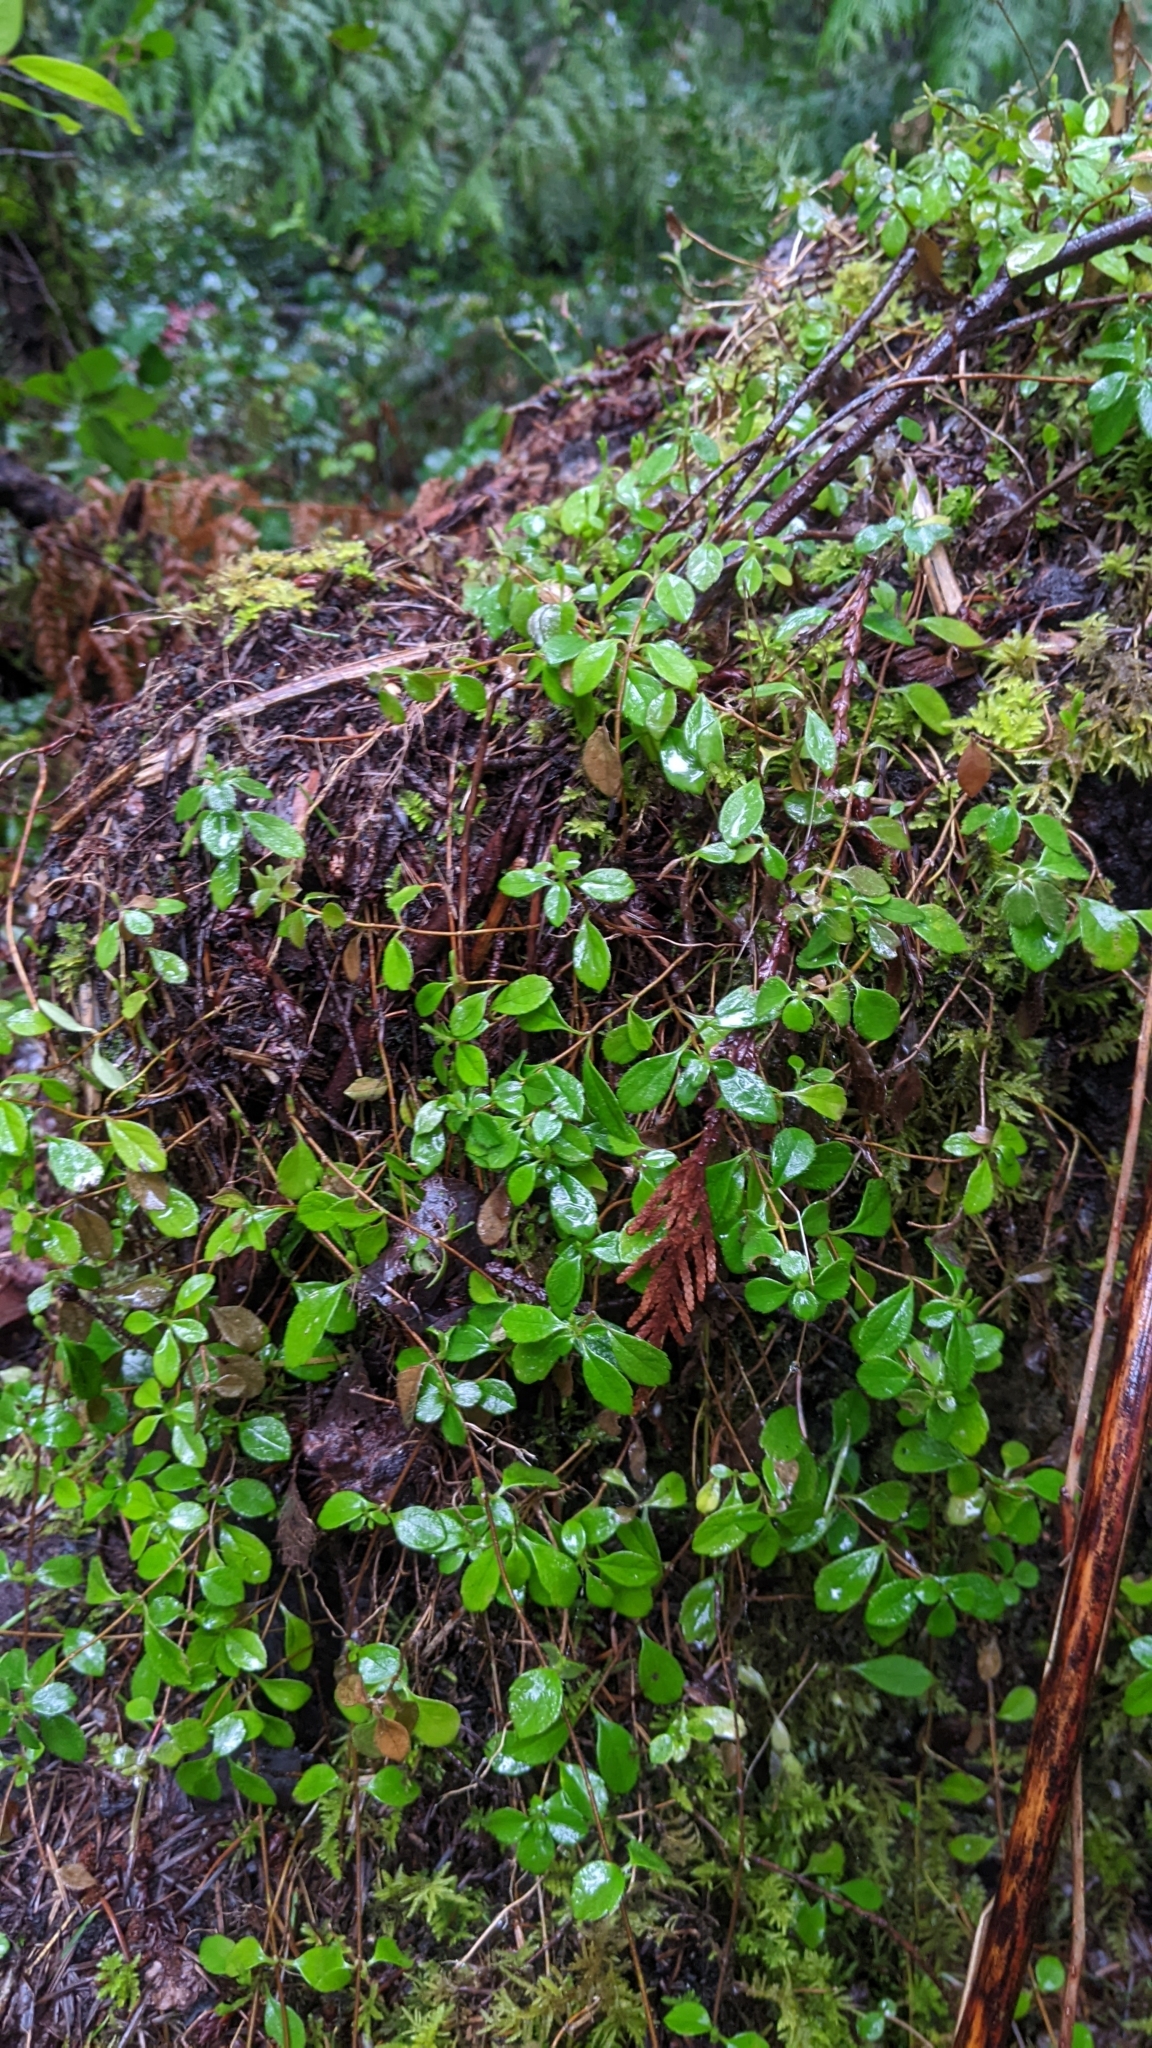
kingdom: Plantae
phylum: Tracheophyta
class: Magnoliopsida
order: Dipsacales
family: Caprifoliaceae
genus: Linnaea
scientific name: Linnaea borealis
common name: Twinflower
